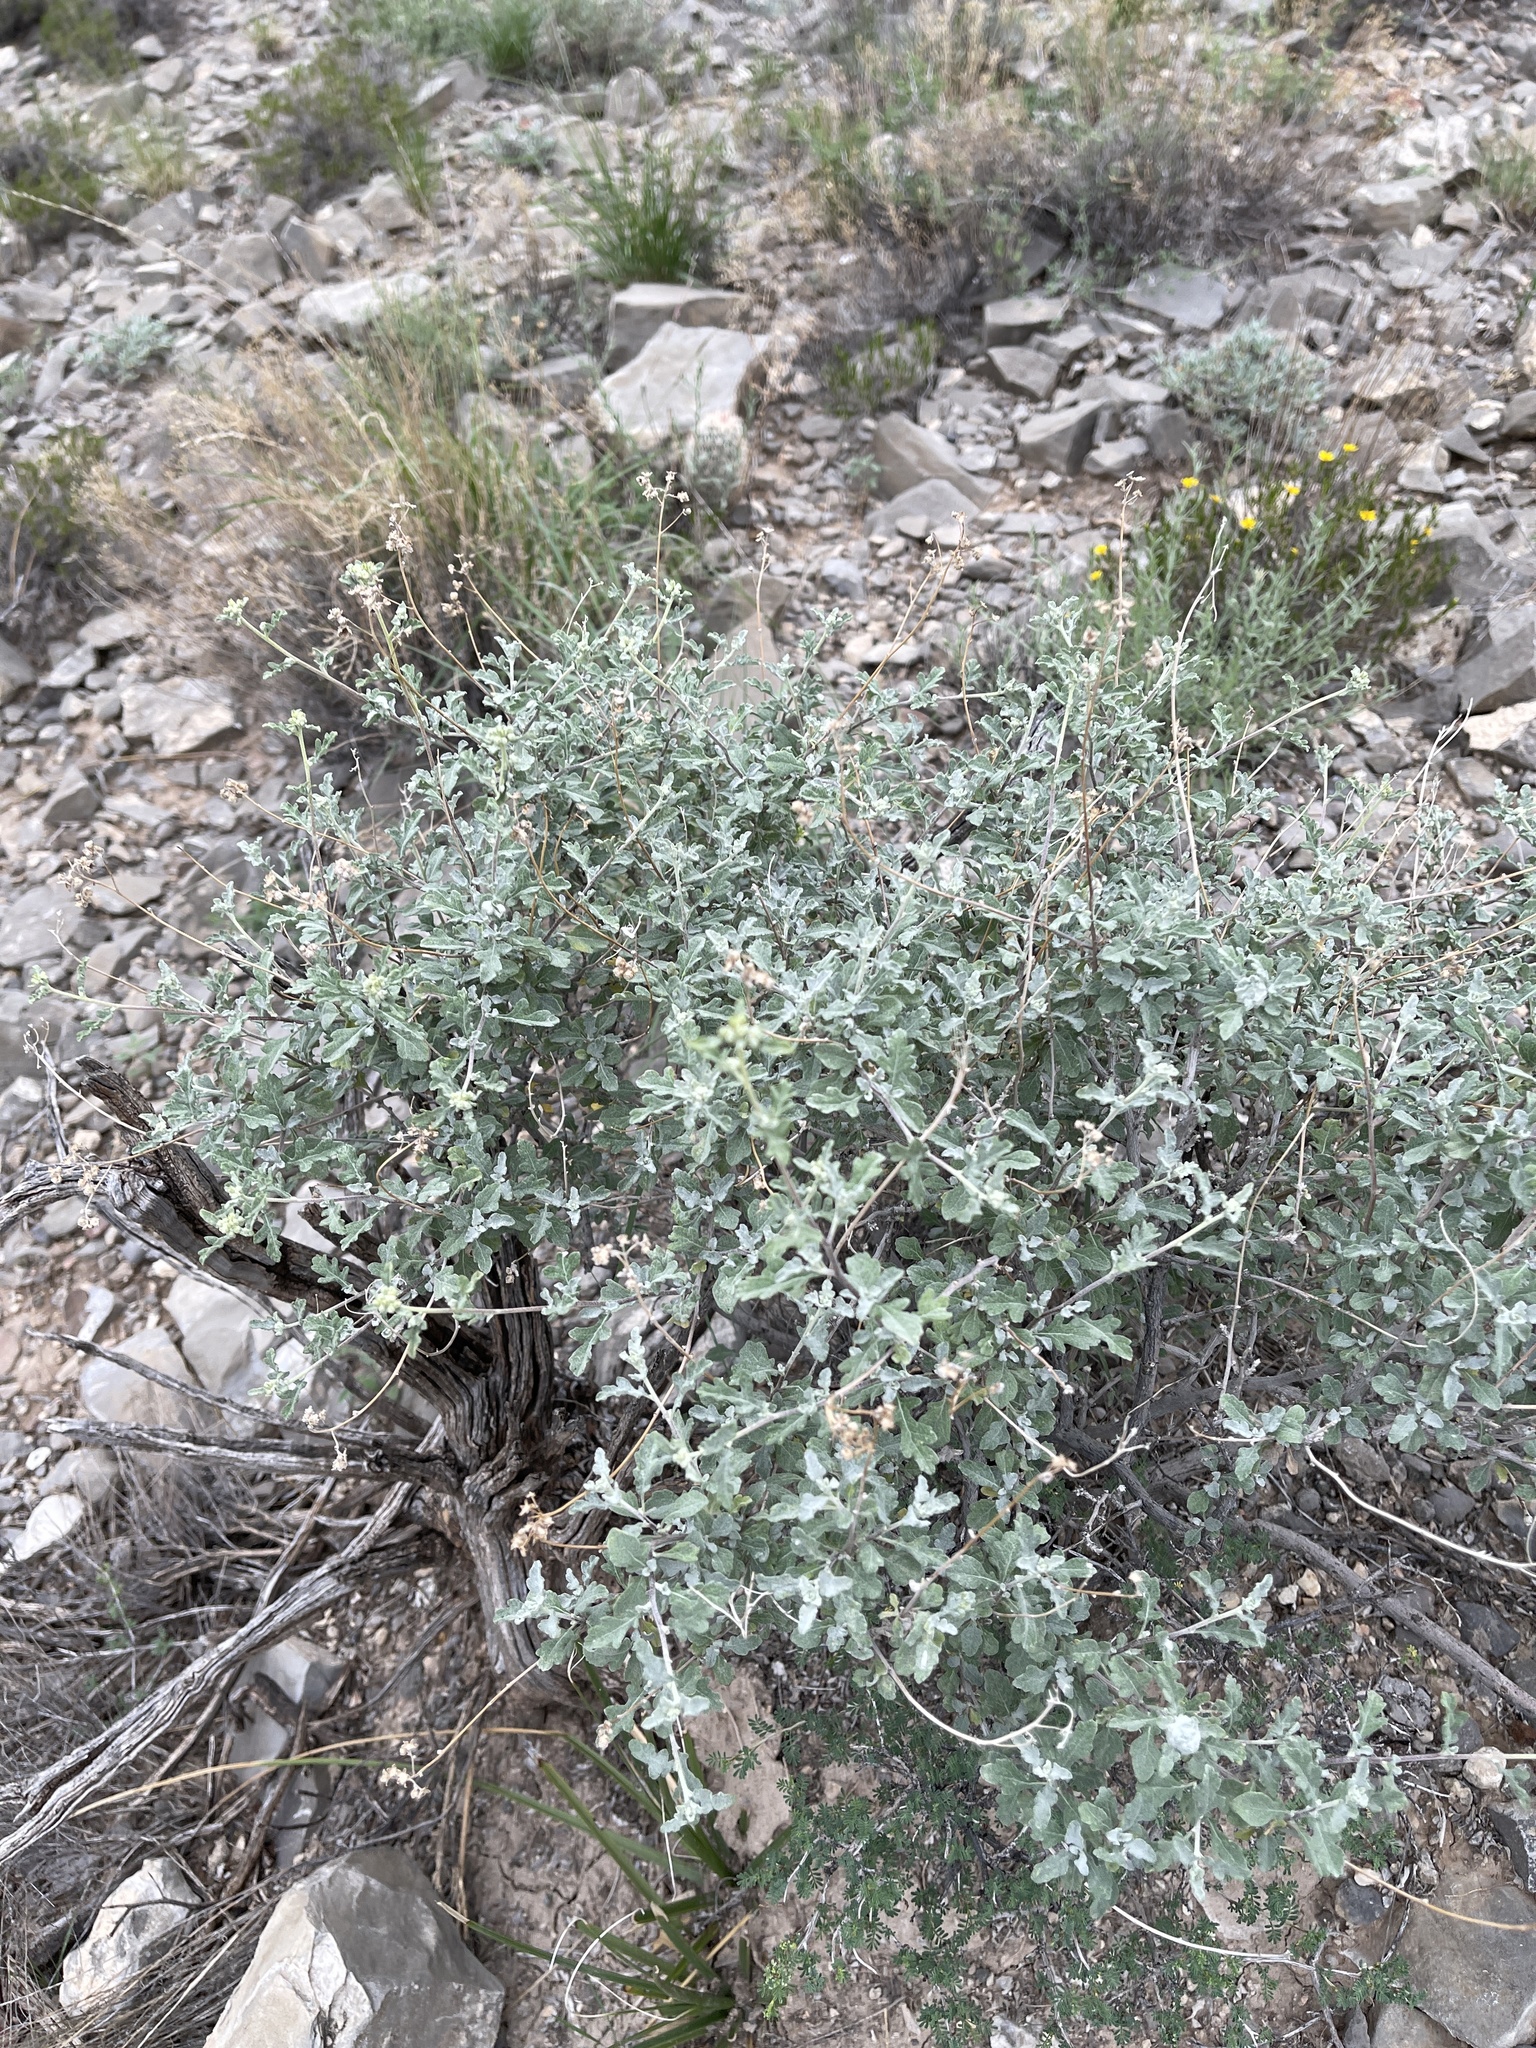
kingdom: Plantae
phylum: Tracheophyta
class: Magnoliopsida
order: Asterales
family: Asteraceae
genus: Parthenium
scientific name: Parthenium incanum
